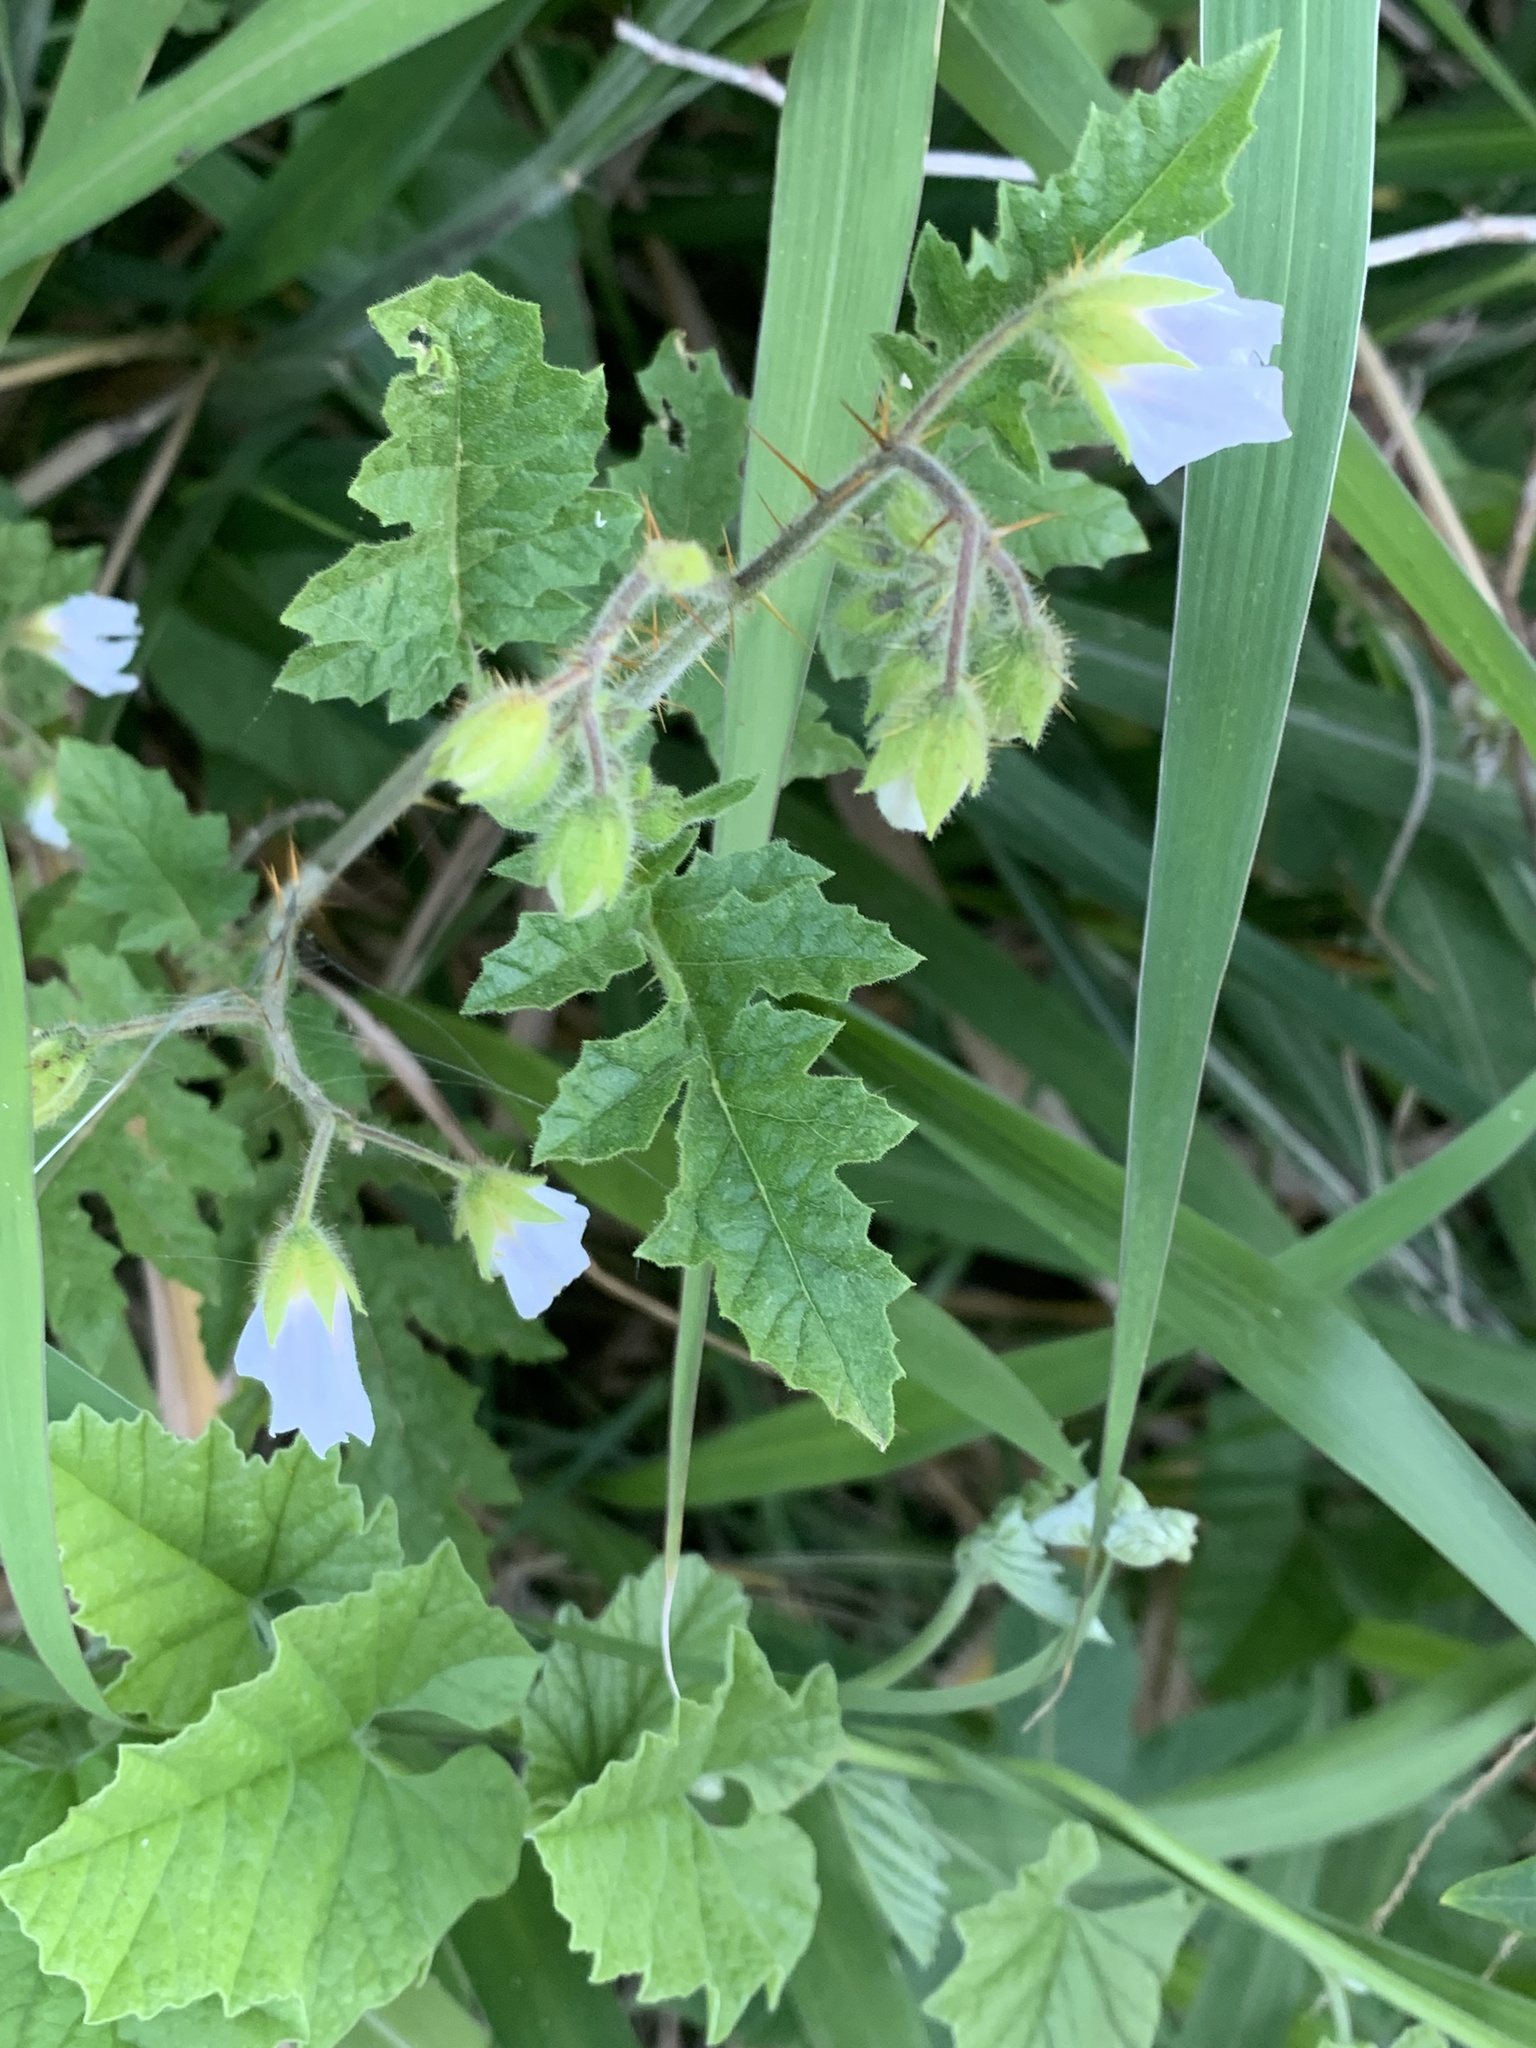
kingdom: Plantae
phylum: Tracheophyta
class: Magnoliopsida
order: Solanales
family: Solanaceae
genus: Solanum
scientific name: Solanum sisymbriifolium
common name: Red buffalo-bur
